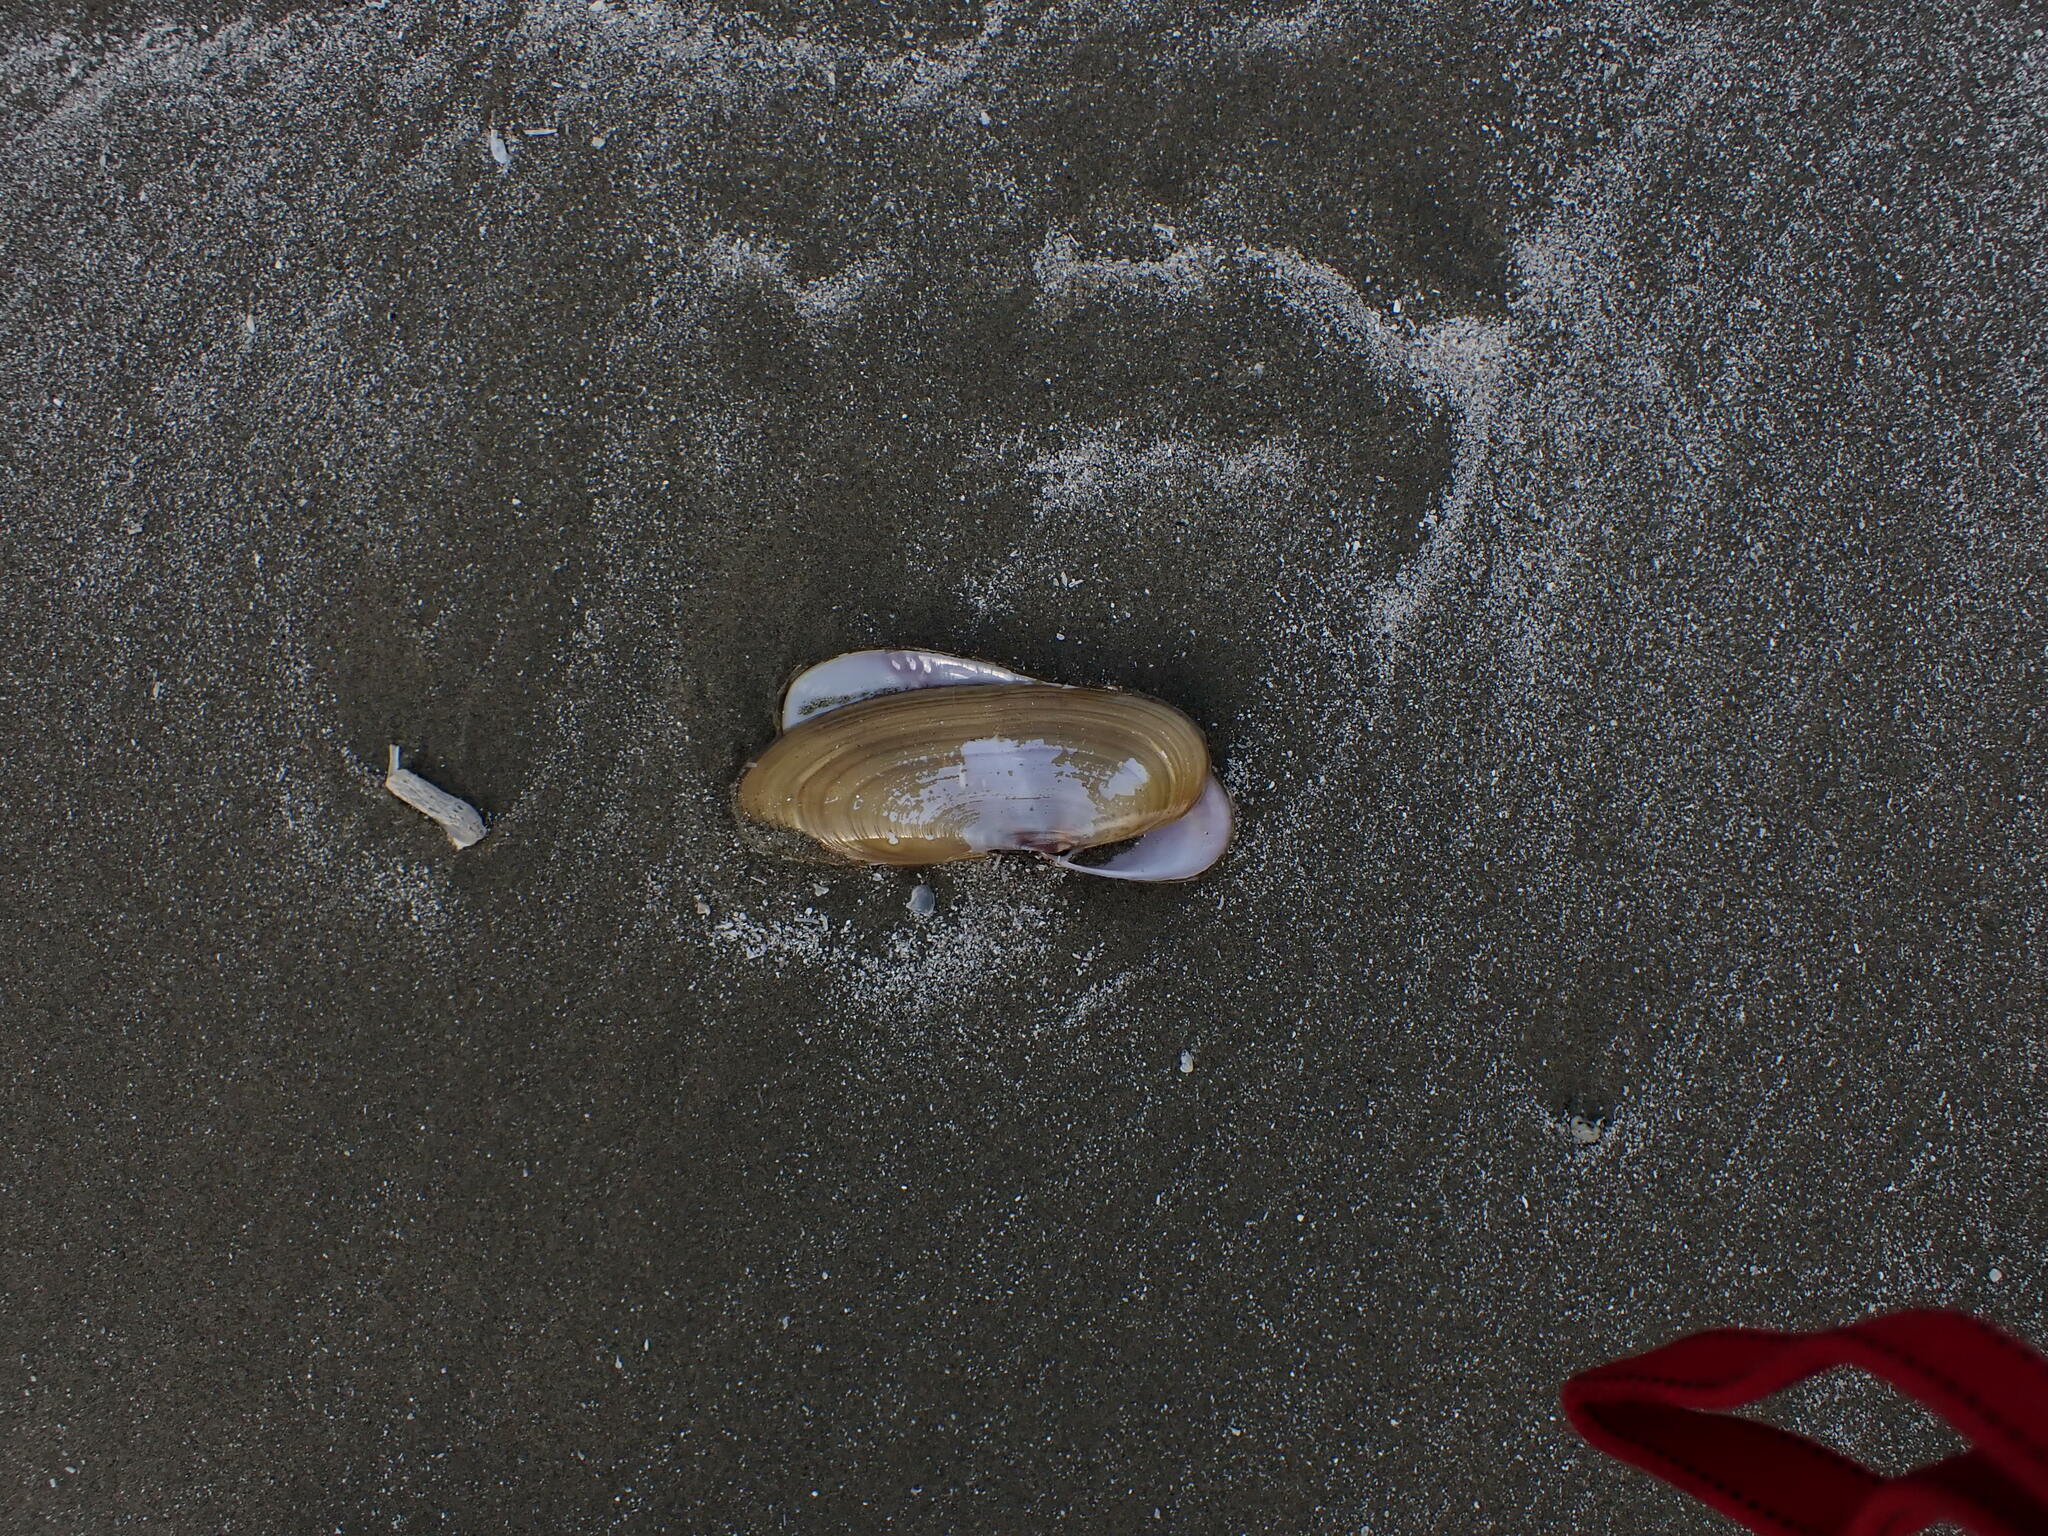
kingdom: Animalia
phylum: Mollusca
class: Bivalvia
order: Adapedonta
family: Pharidae
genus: Siliqua
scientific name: Siliqua patula
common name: Pacific razor clam
